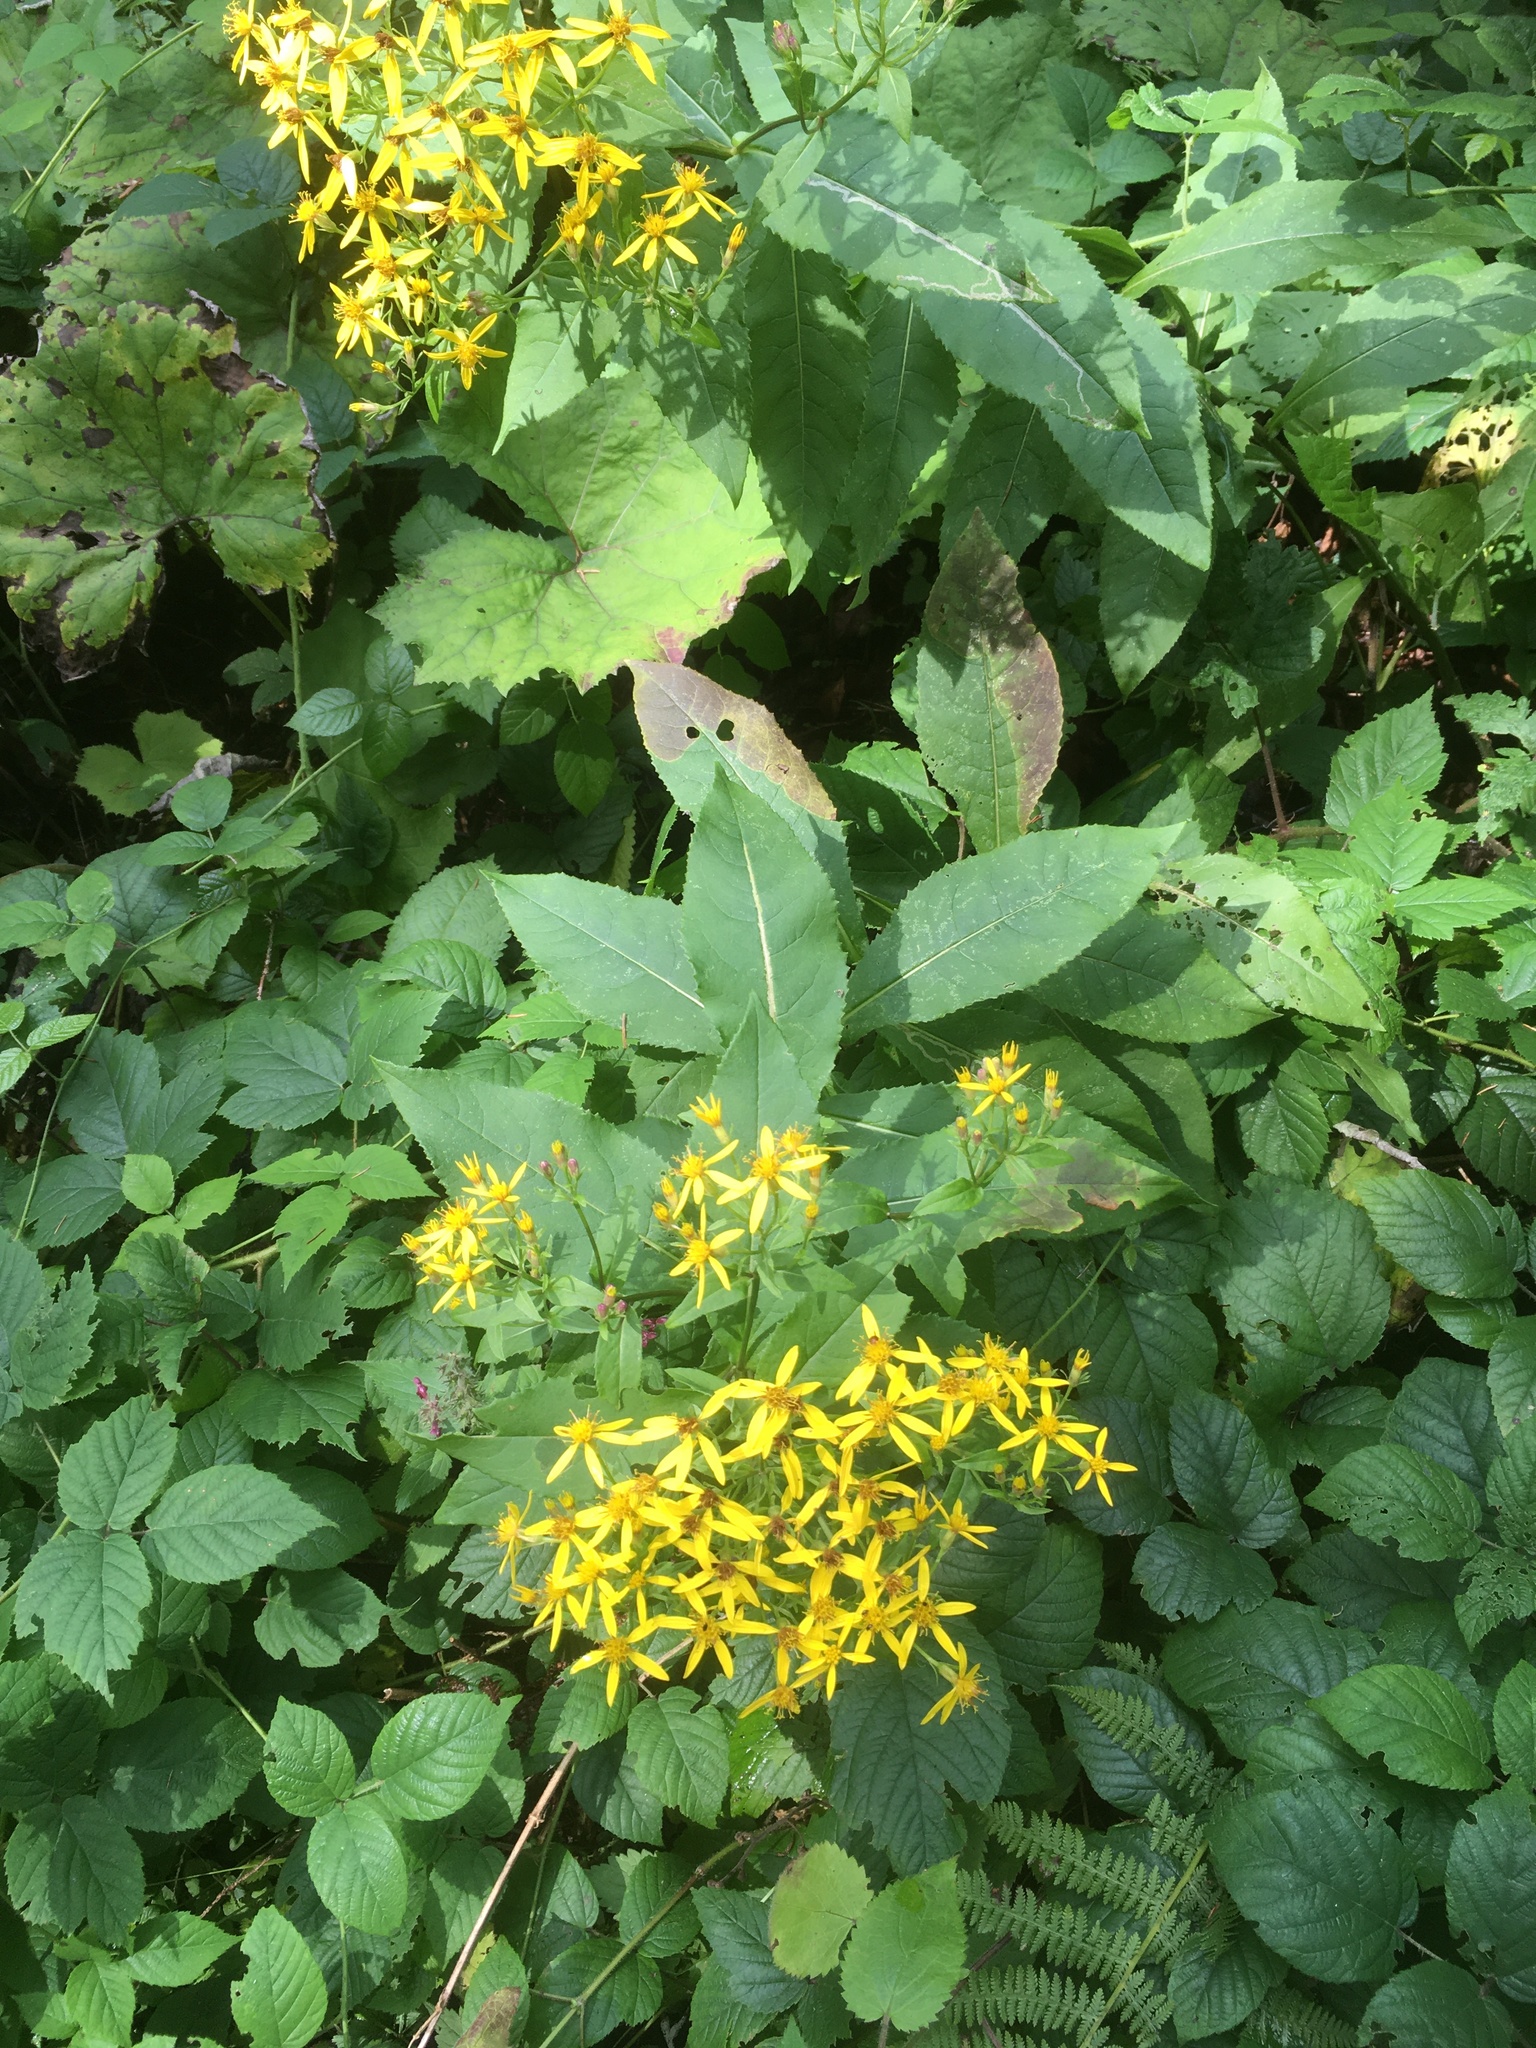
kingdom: Plantae
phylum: Tracheophyta
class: Magnoliopsida
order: Asterales
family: Asteraceae
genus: Senecio
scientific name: Senecio ovatus
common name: Wood ragwort
